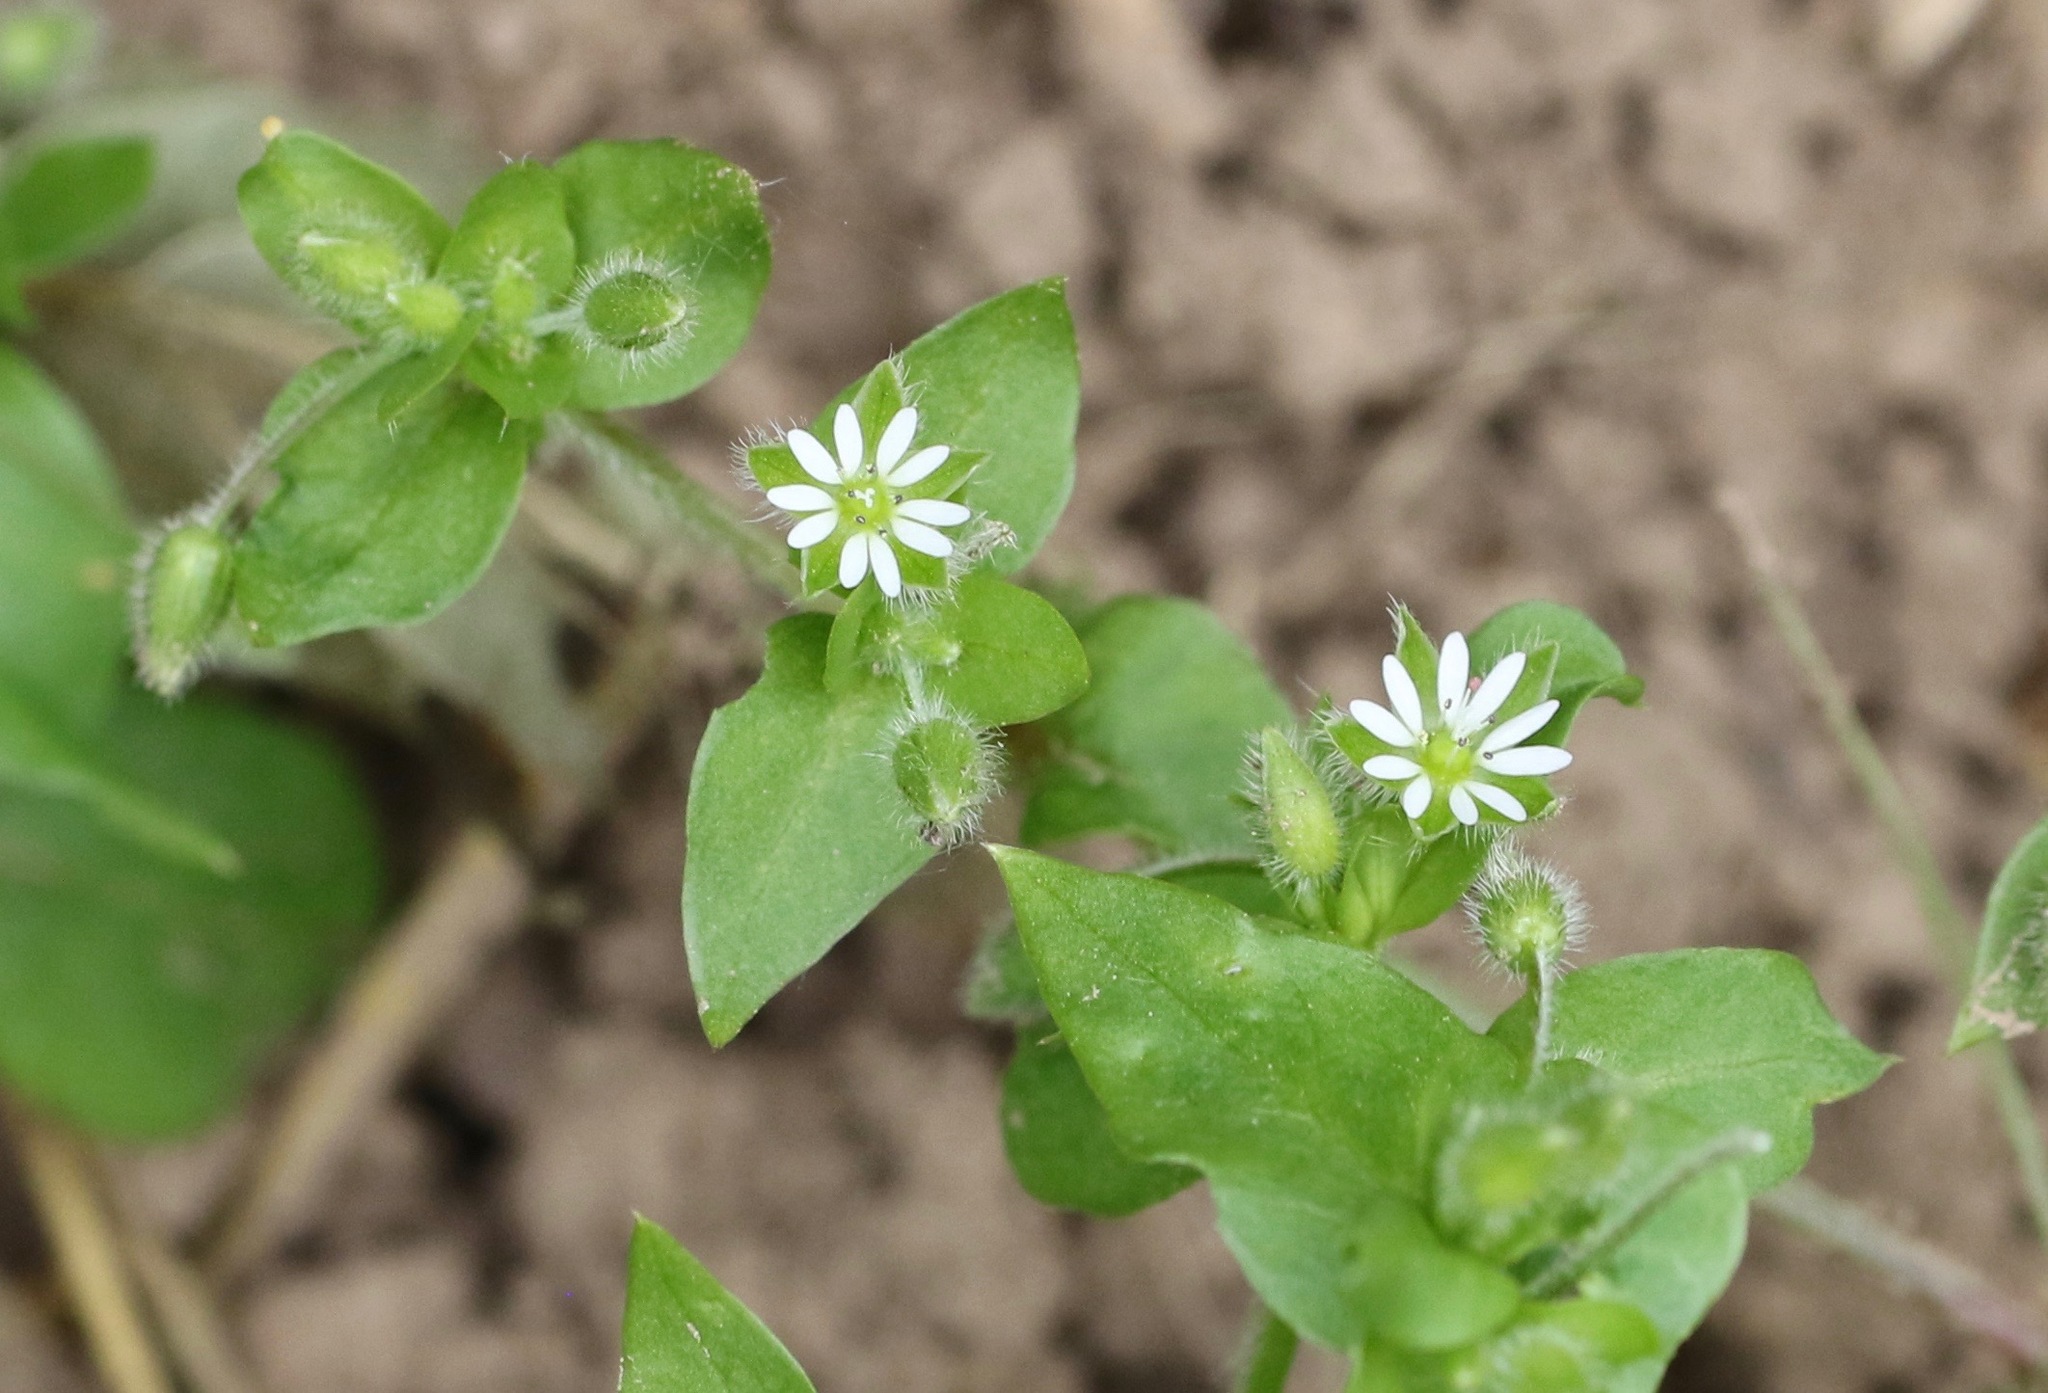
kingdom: Plantae
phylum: Tracheophyta
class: Magnoliopsida
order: Caryophyllales
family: Caryophyllaceae
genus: Stellaria
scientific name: Stellaria media
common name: Common chickweed
